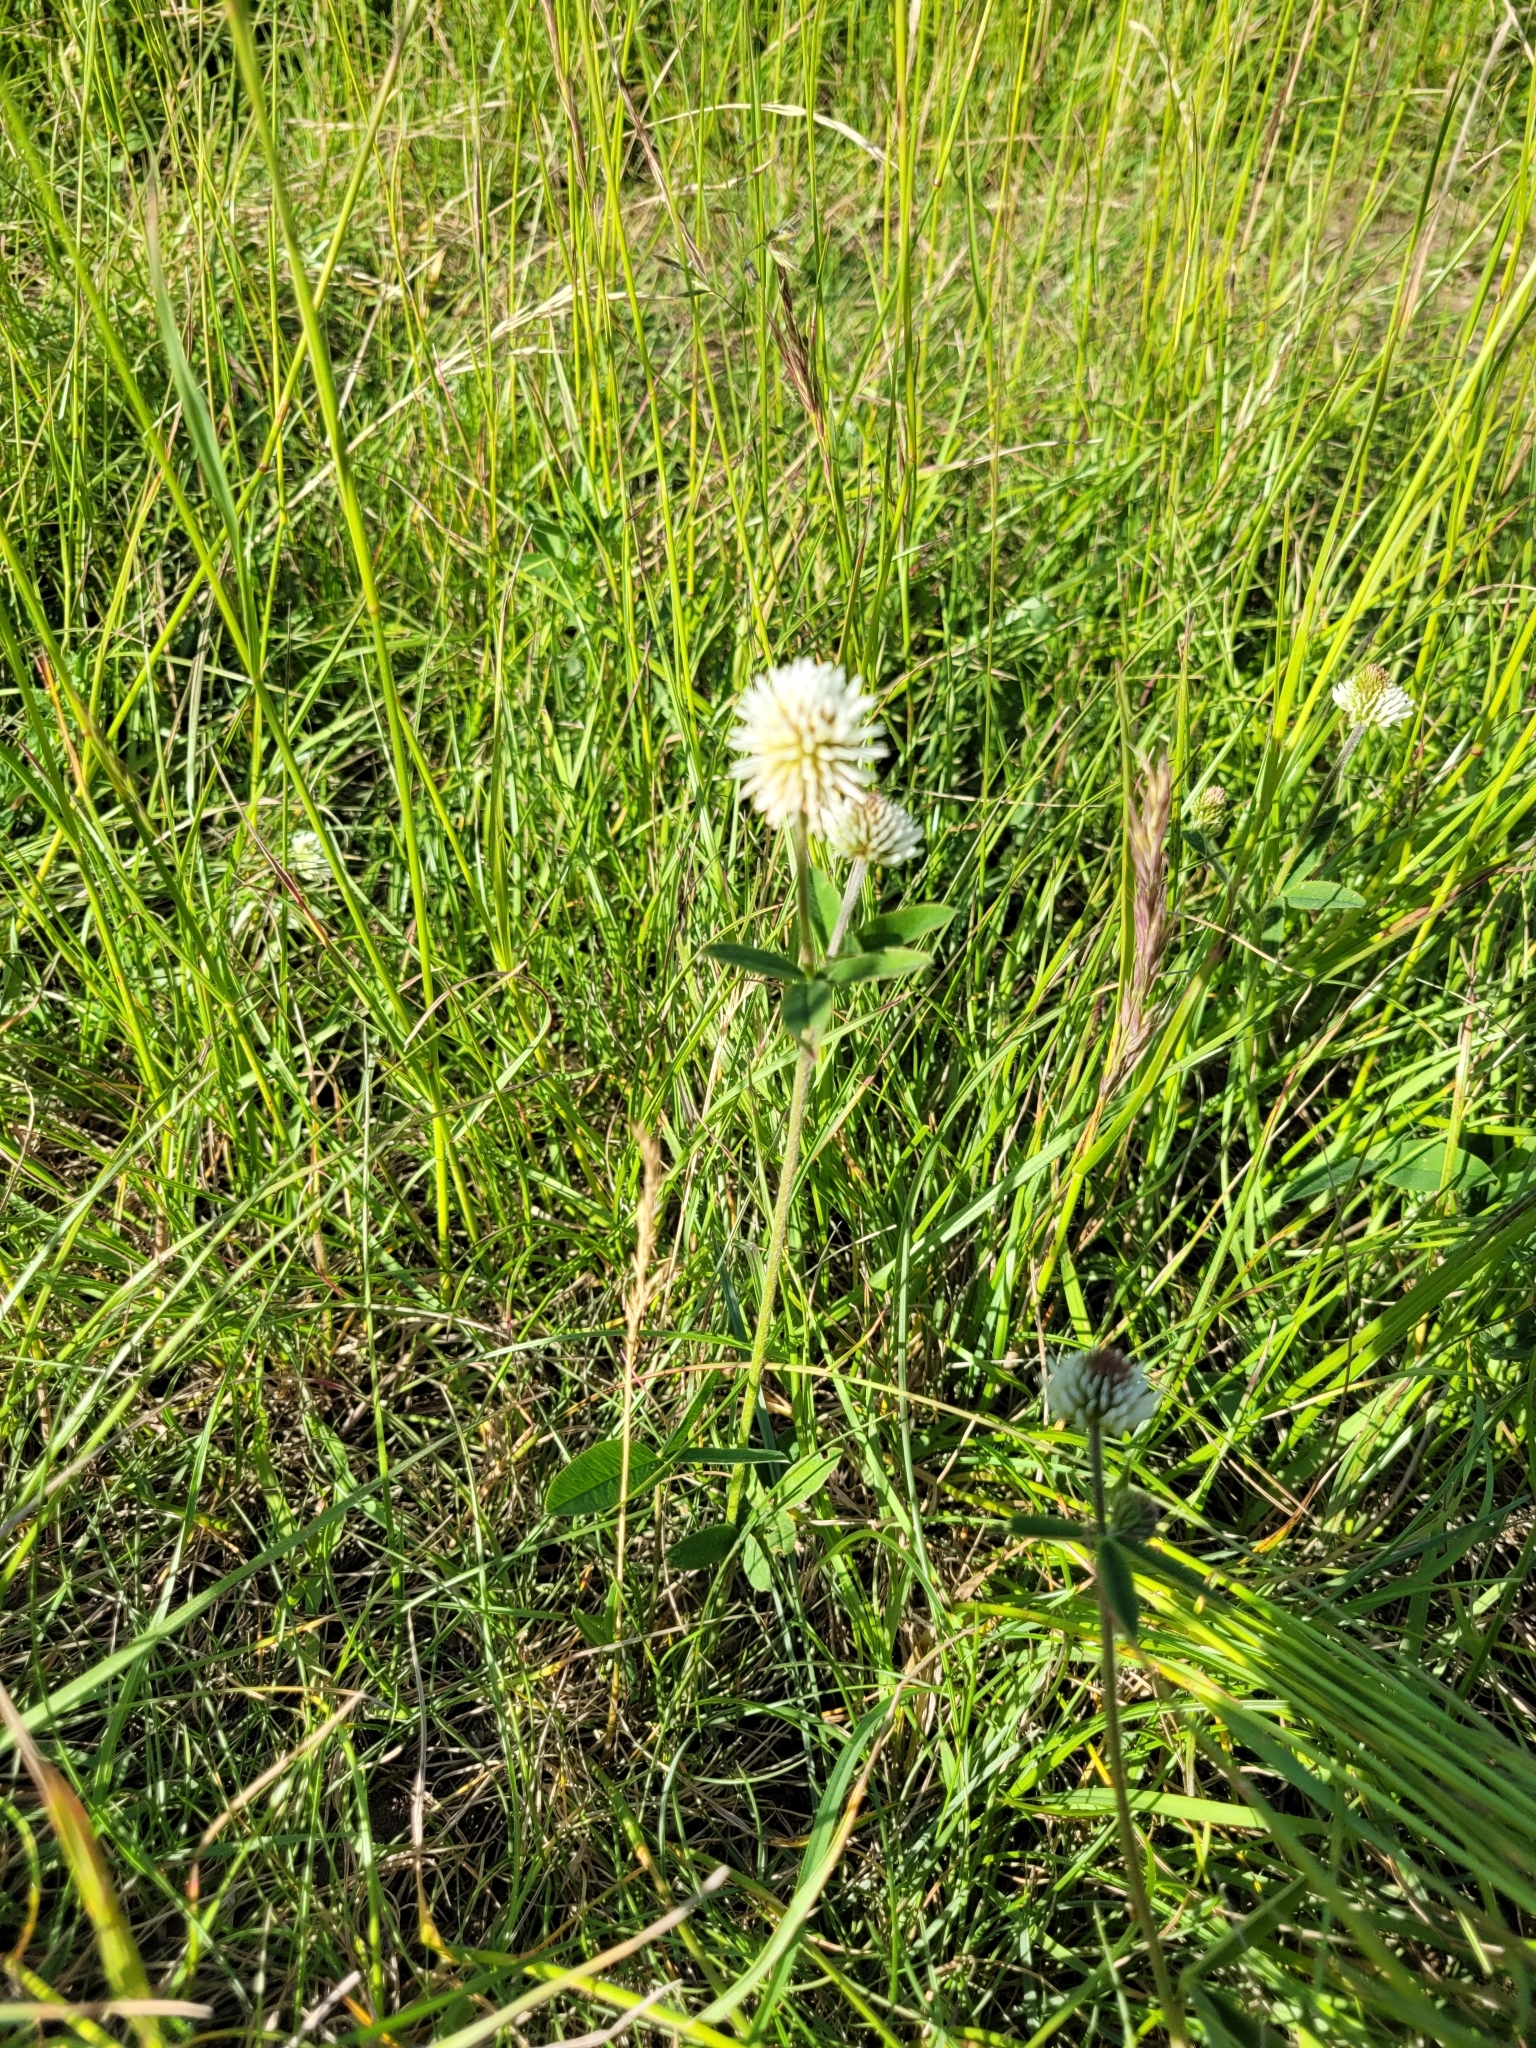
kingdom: Plantae
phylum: Tracheophyta
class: Magnoliopsida
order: Fabales
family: Fabaceae
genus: Trifolium
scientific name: Trifolium montanum
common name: Mountain clover
